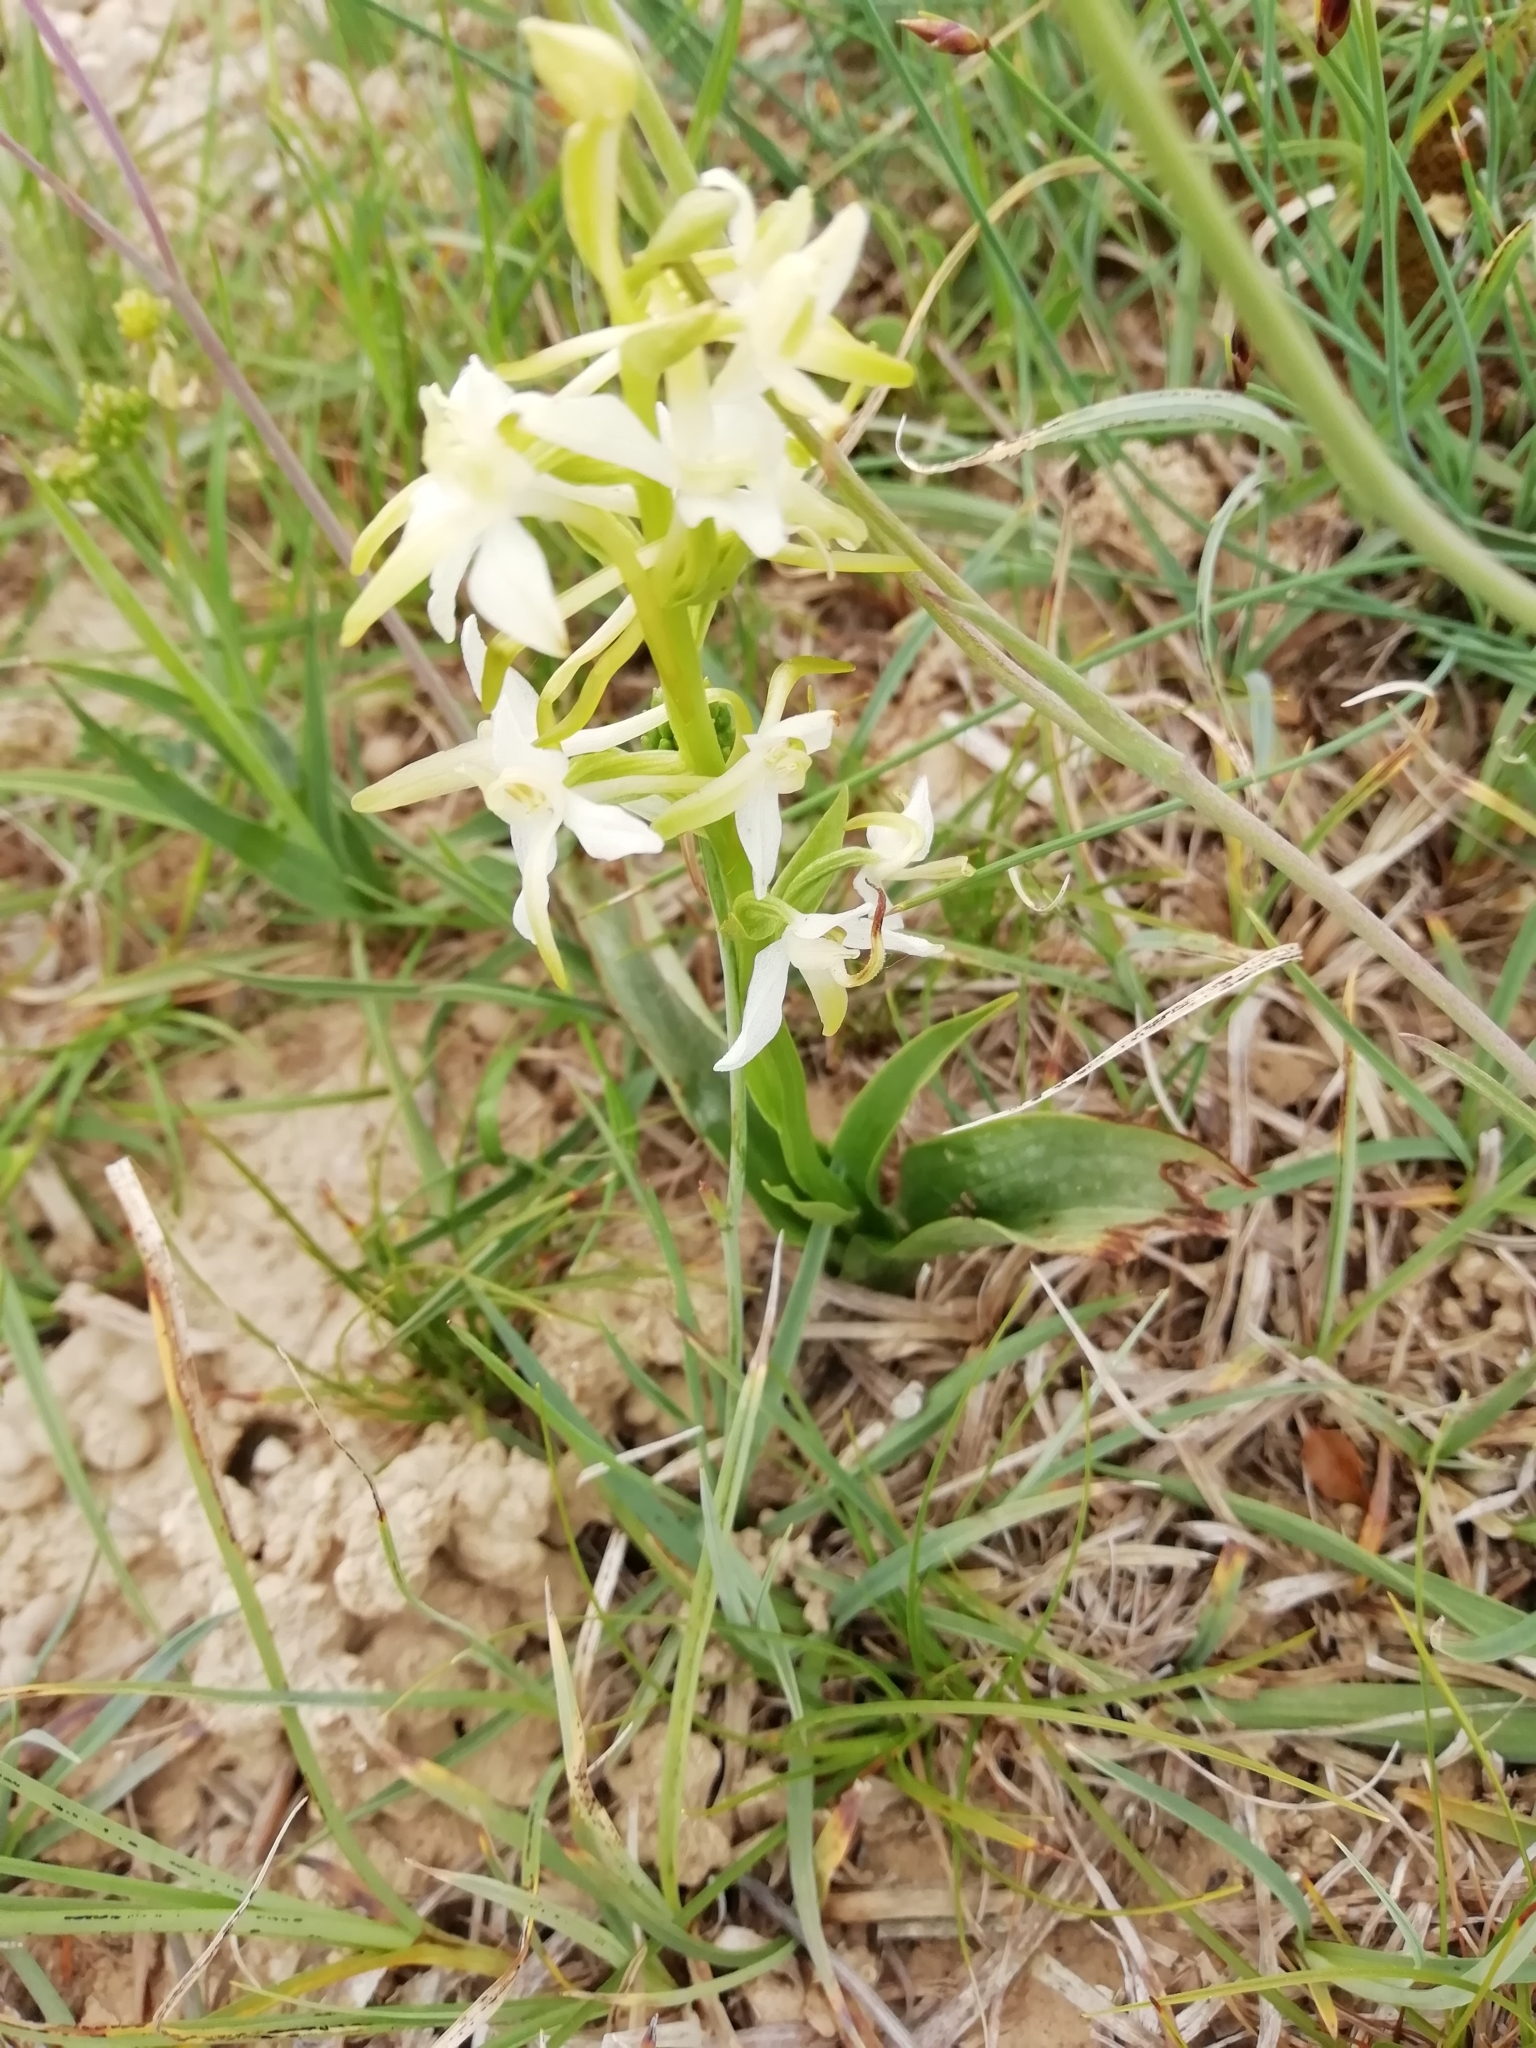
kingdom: Plantae
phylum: Tracheophyta
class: Liliopsida
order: Asparagales
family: Orchidaceae
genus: Platanthera
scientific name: Platanthera bifolia
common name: Lesser butterfly-orchid
